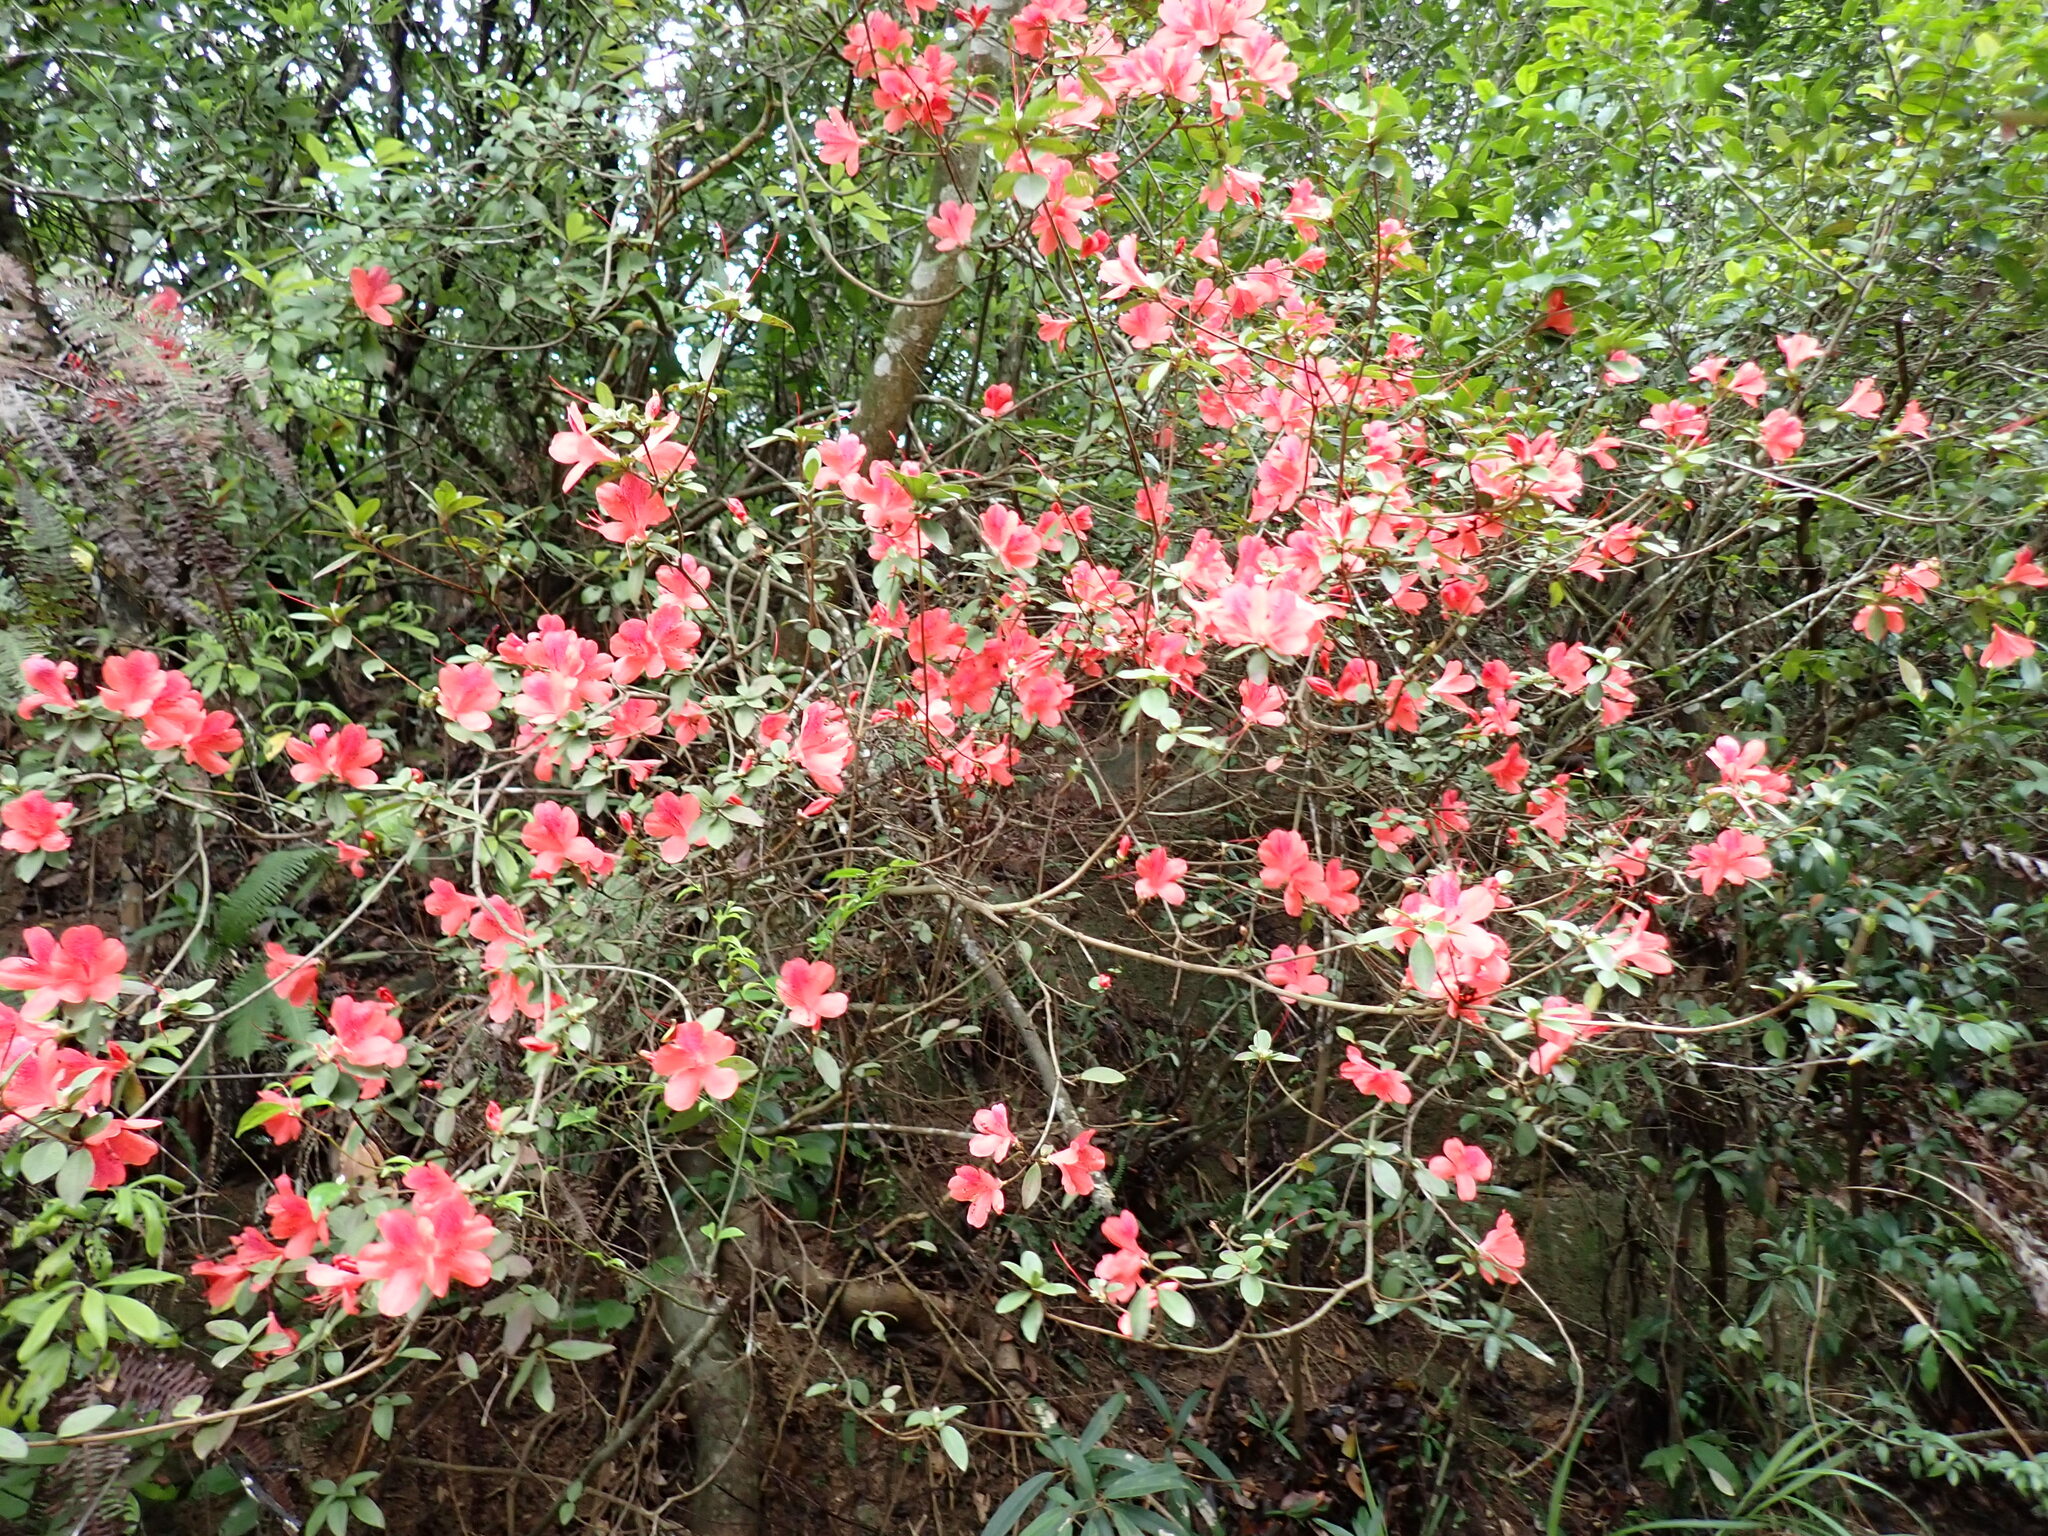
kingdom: Plantae
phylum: Tracheophyta
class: Magnoliopsida
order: Ericales
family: Ericaceae
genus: Rhododendron
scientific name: Rhododendron simsii
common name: Rhododendron
